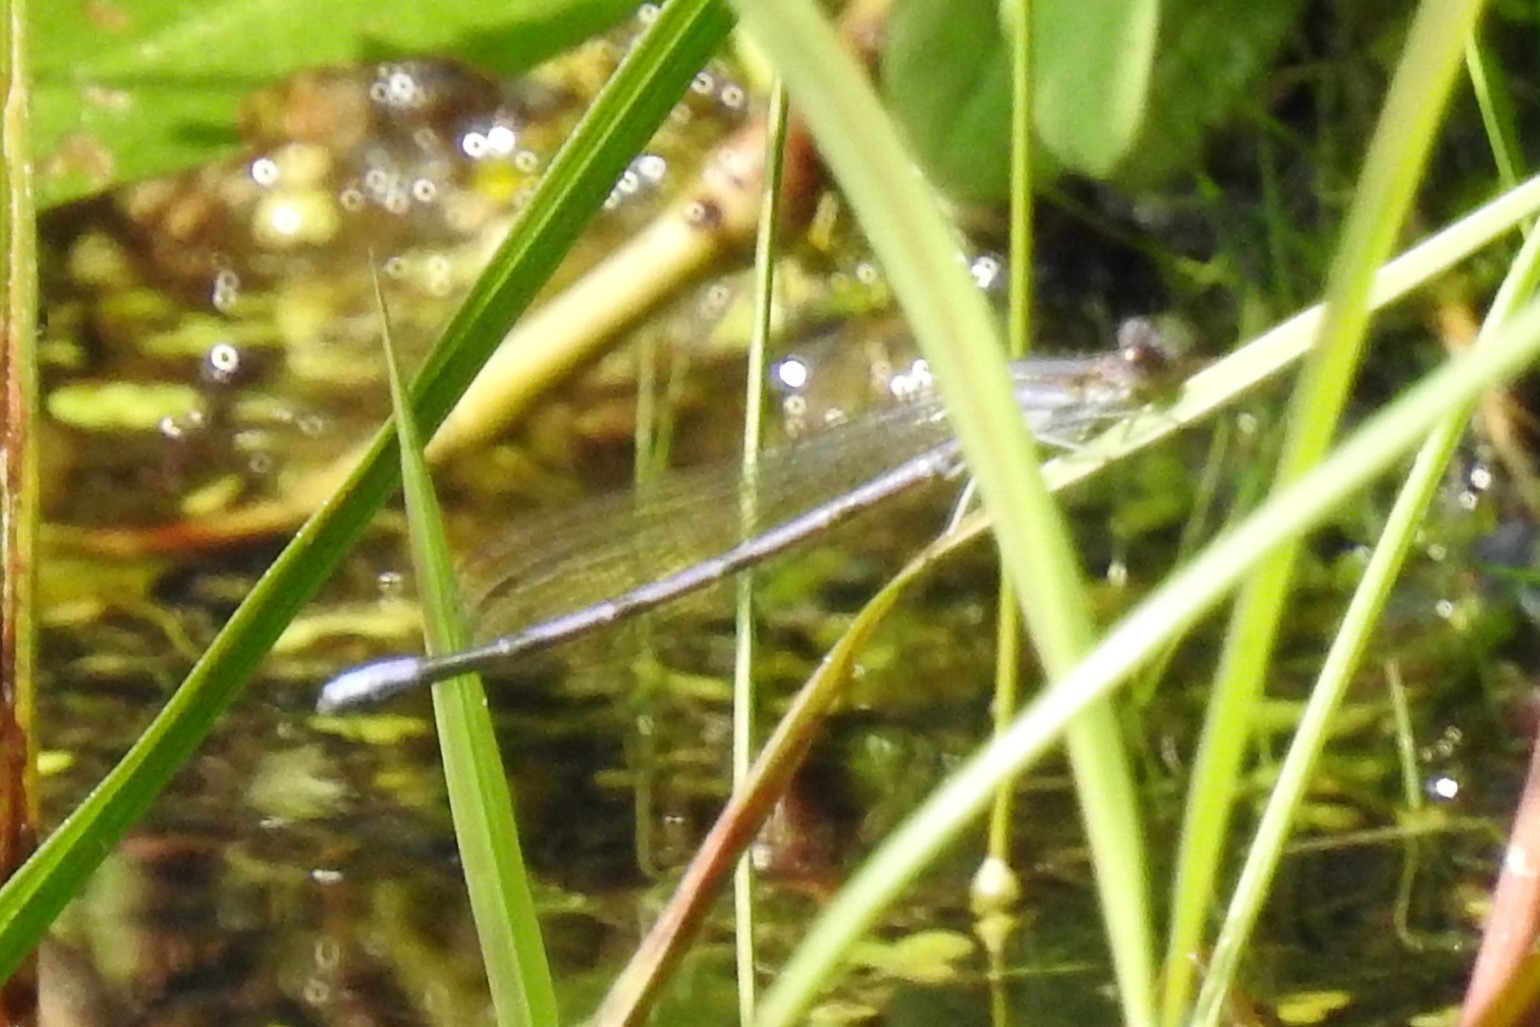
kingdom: Animalia
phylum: Arthropoda
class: Insecta
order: Odonata
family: Coenagrionidae
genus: Argia
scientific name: Argia fumipennis
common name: Variable dancer
